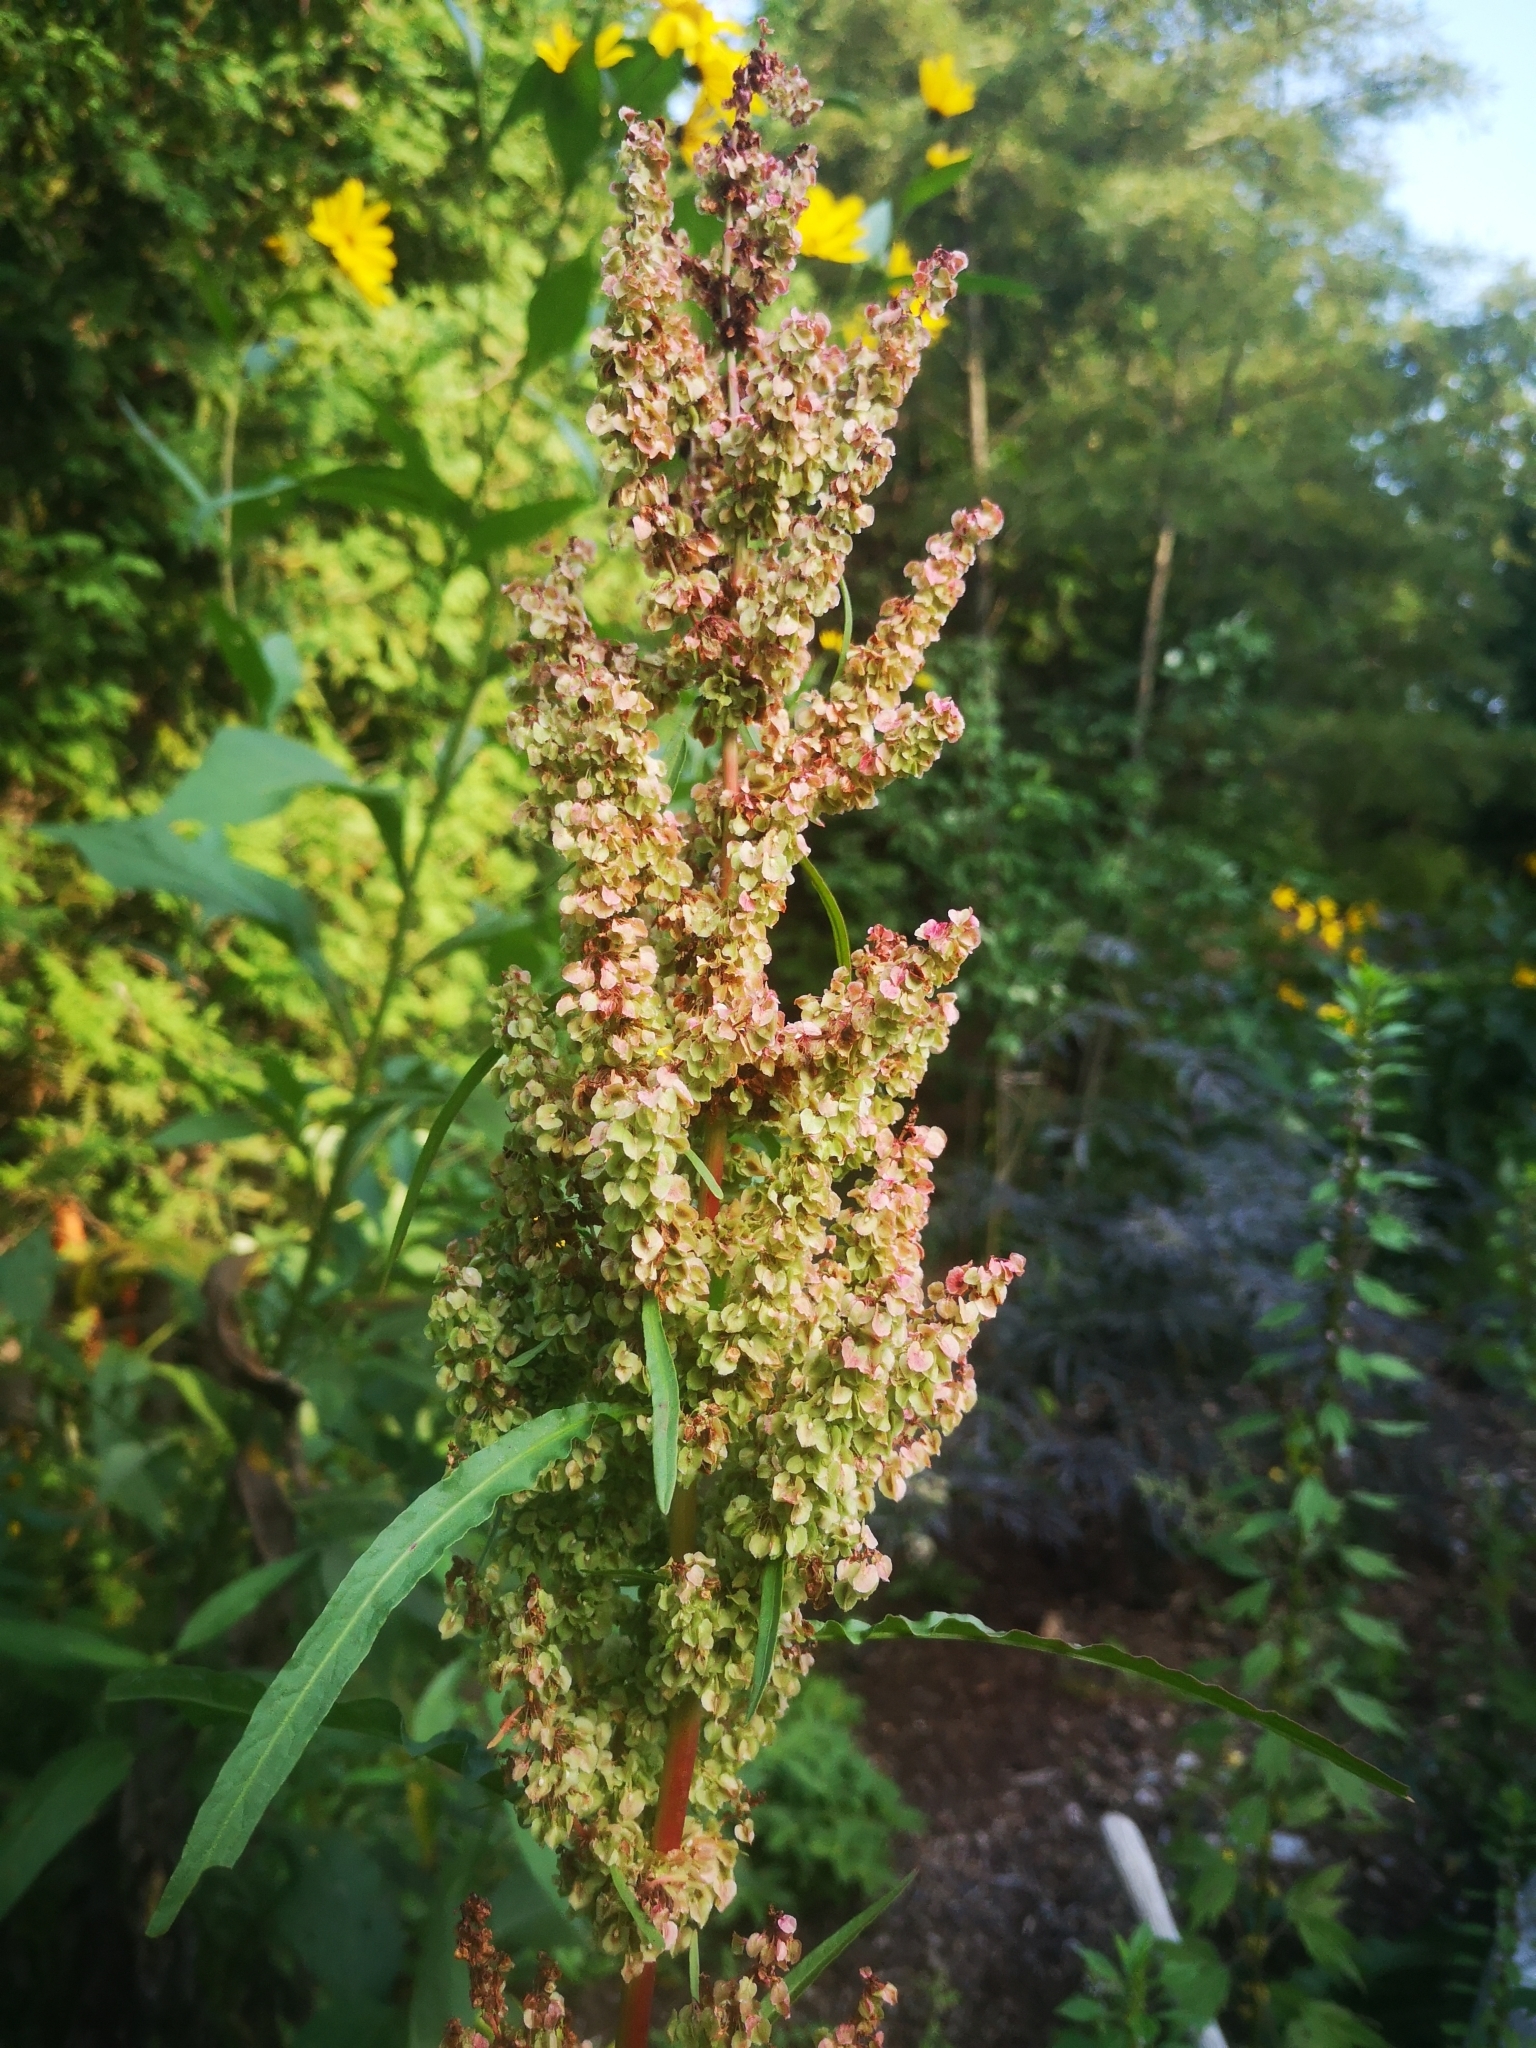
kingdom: Plantae
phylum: Tracheophyta
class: Magnoliopsida
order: Caryophyllales
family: Polygonaceae
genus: Rumex
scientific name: Rumex crispus
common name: Curled dock
